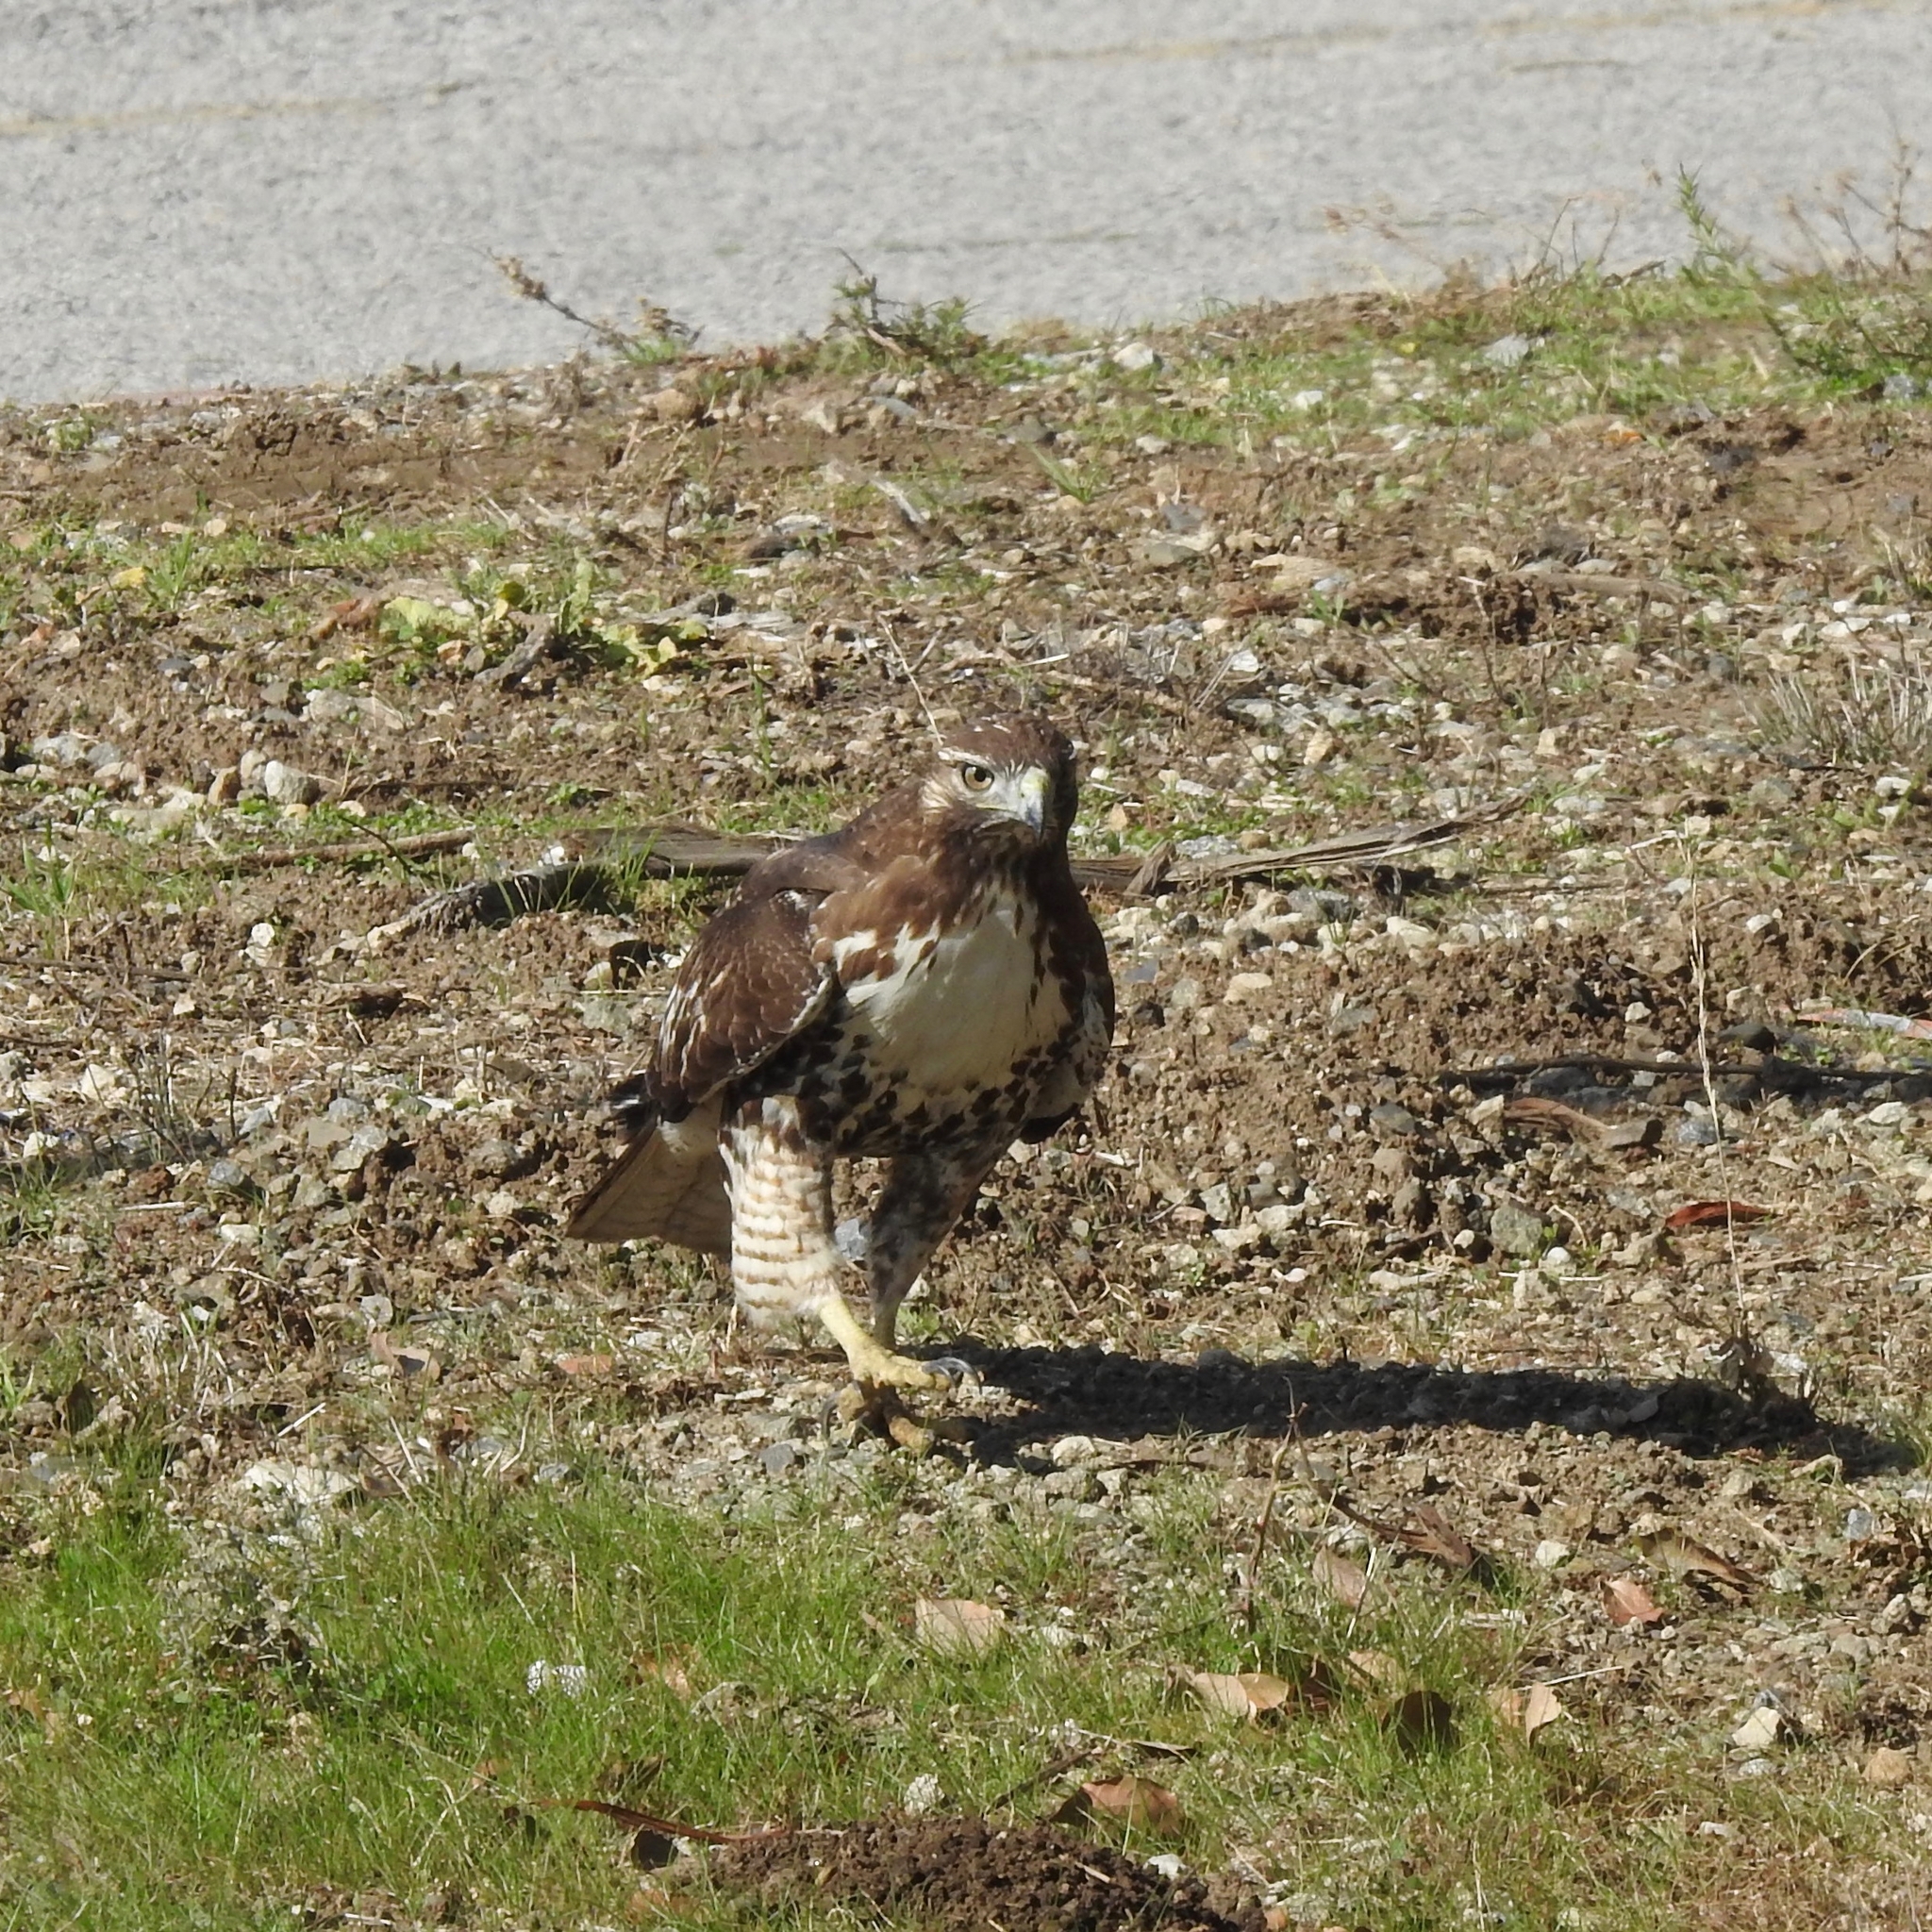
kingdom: Animalia
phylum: Chordata
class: Aves
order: Accipitriformes
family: Accipitridae
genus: Buteo
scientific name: Buteo jamaicensis
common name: Red-tailed hawk
